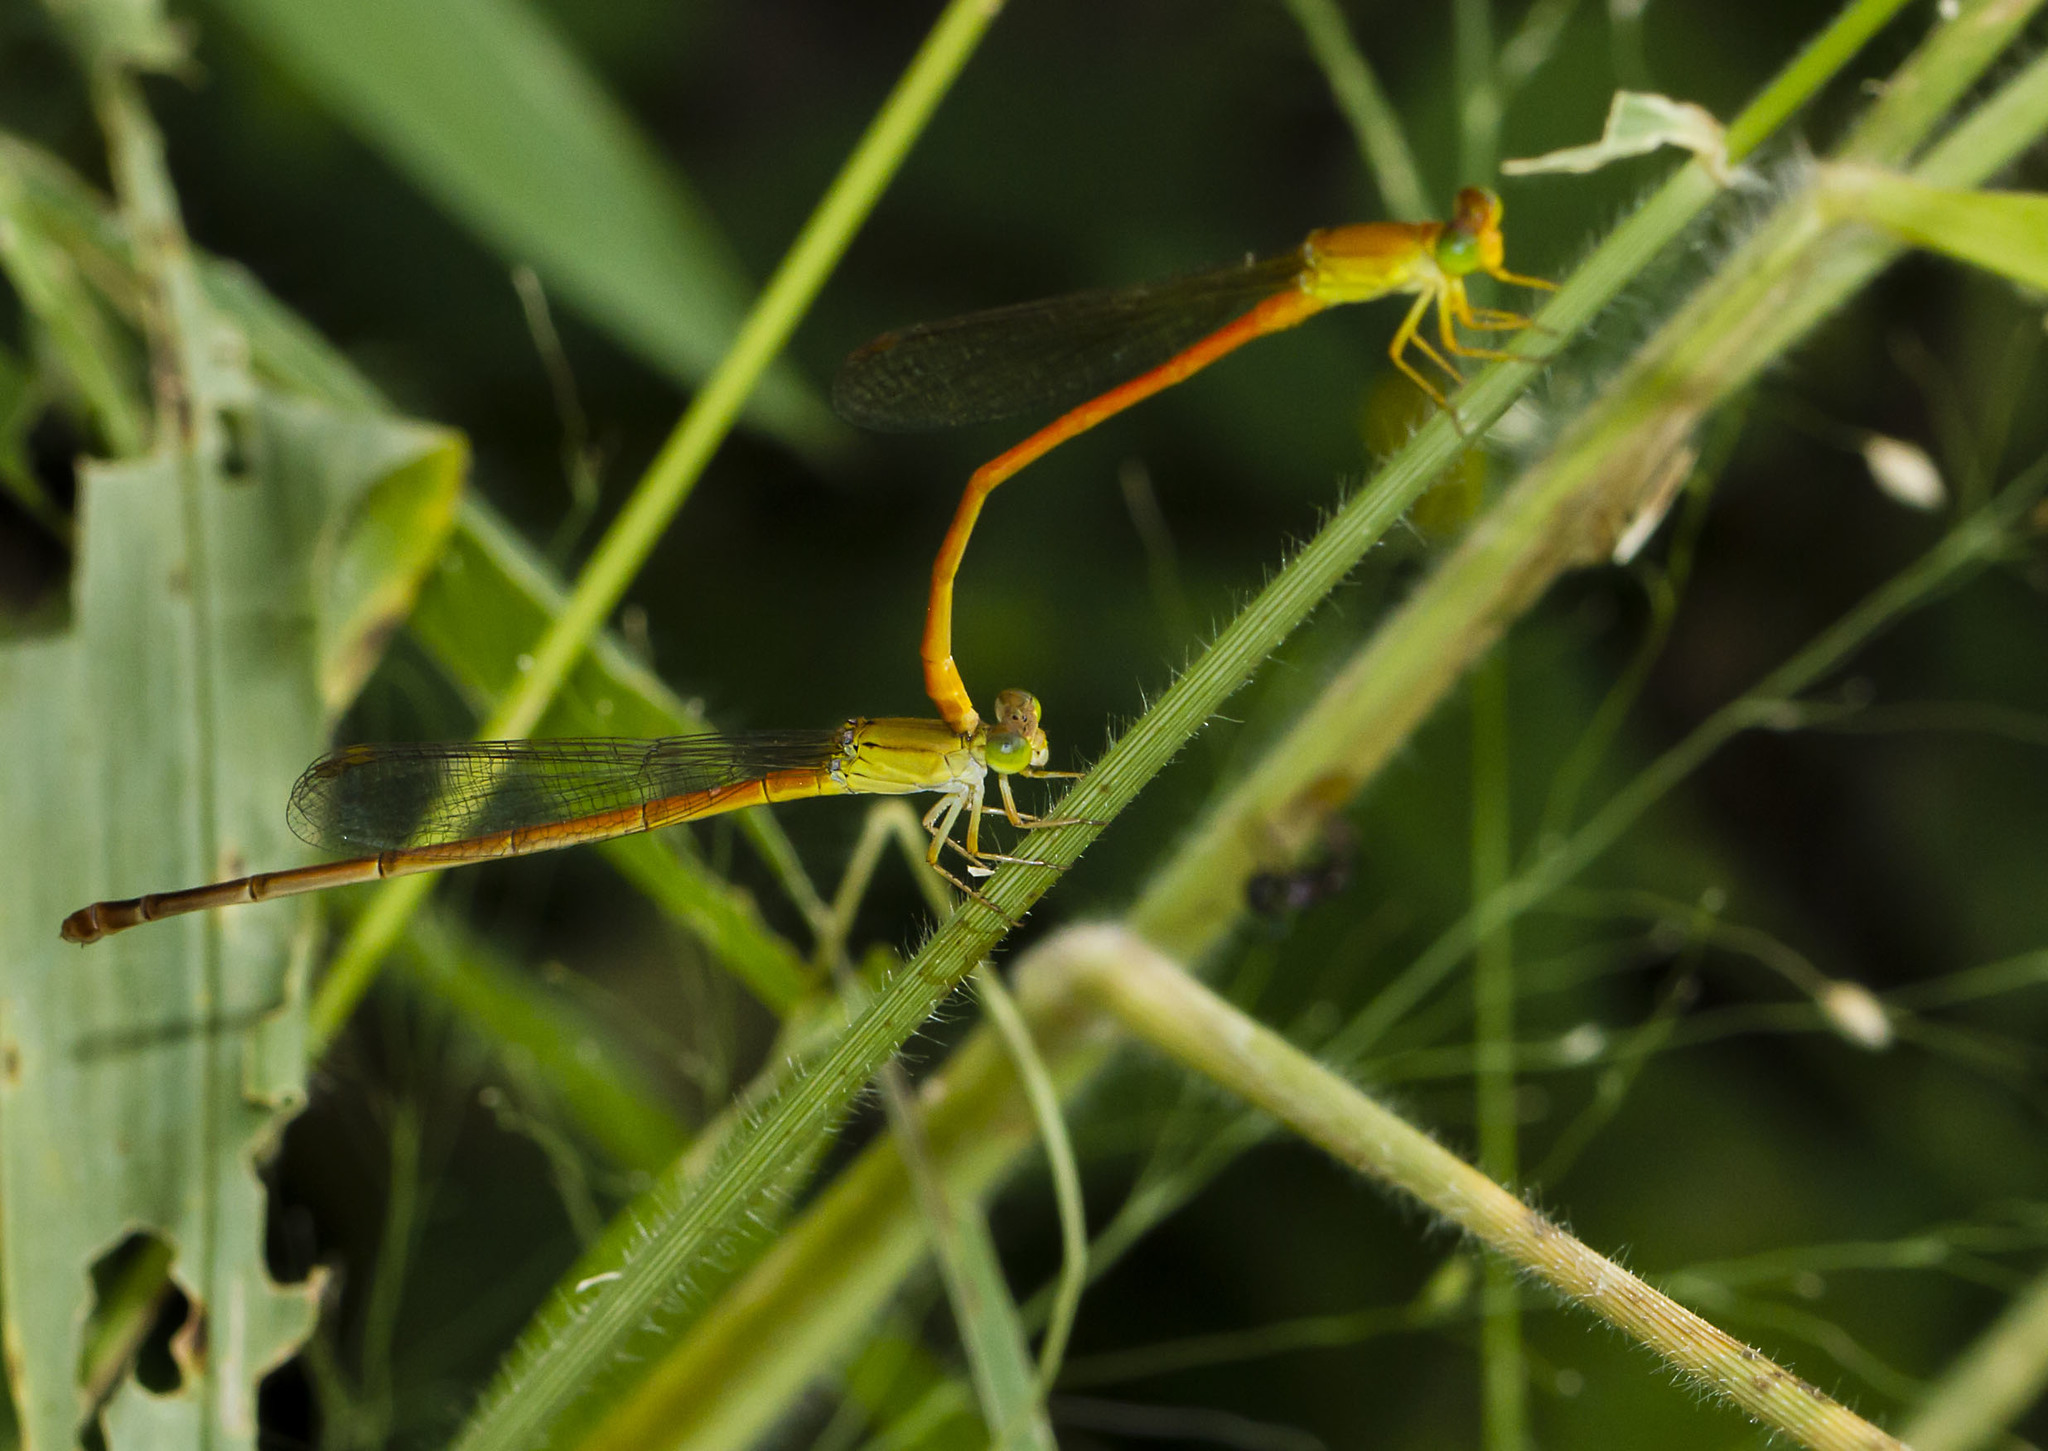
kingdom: Animalia
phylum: Arthropoda
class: Insecta
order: Odonata
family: Coenagrionidae
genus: Ceriagrion
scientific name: Ceriagrion glabrum
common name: Common pond damsel
